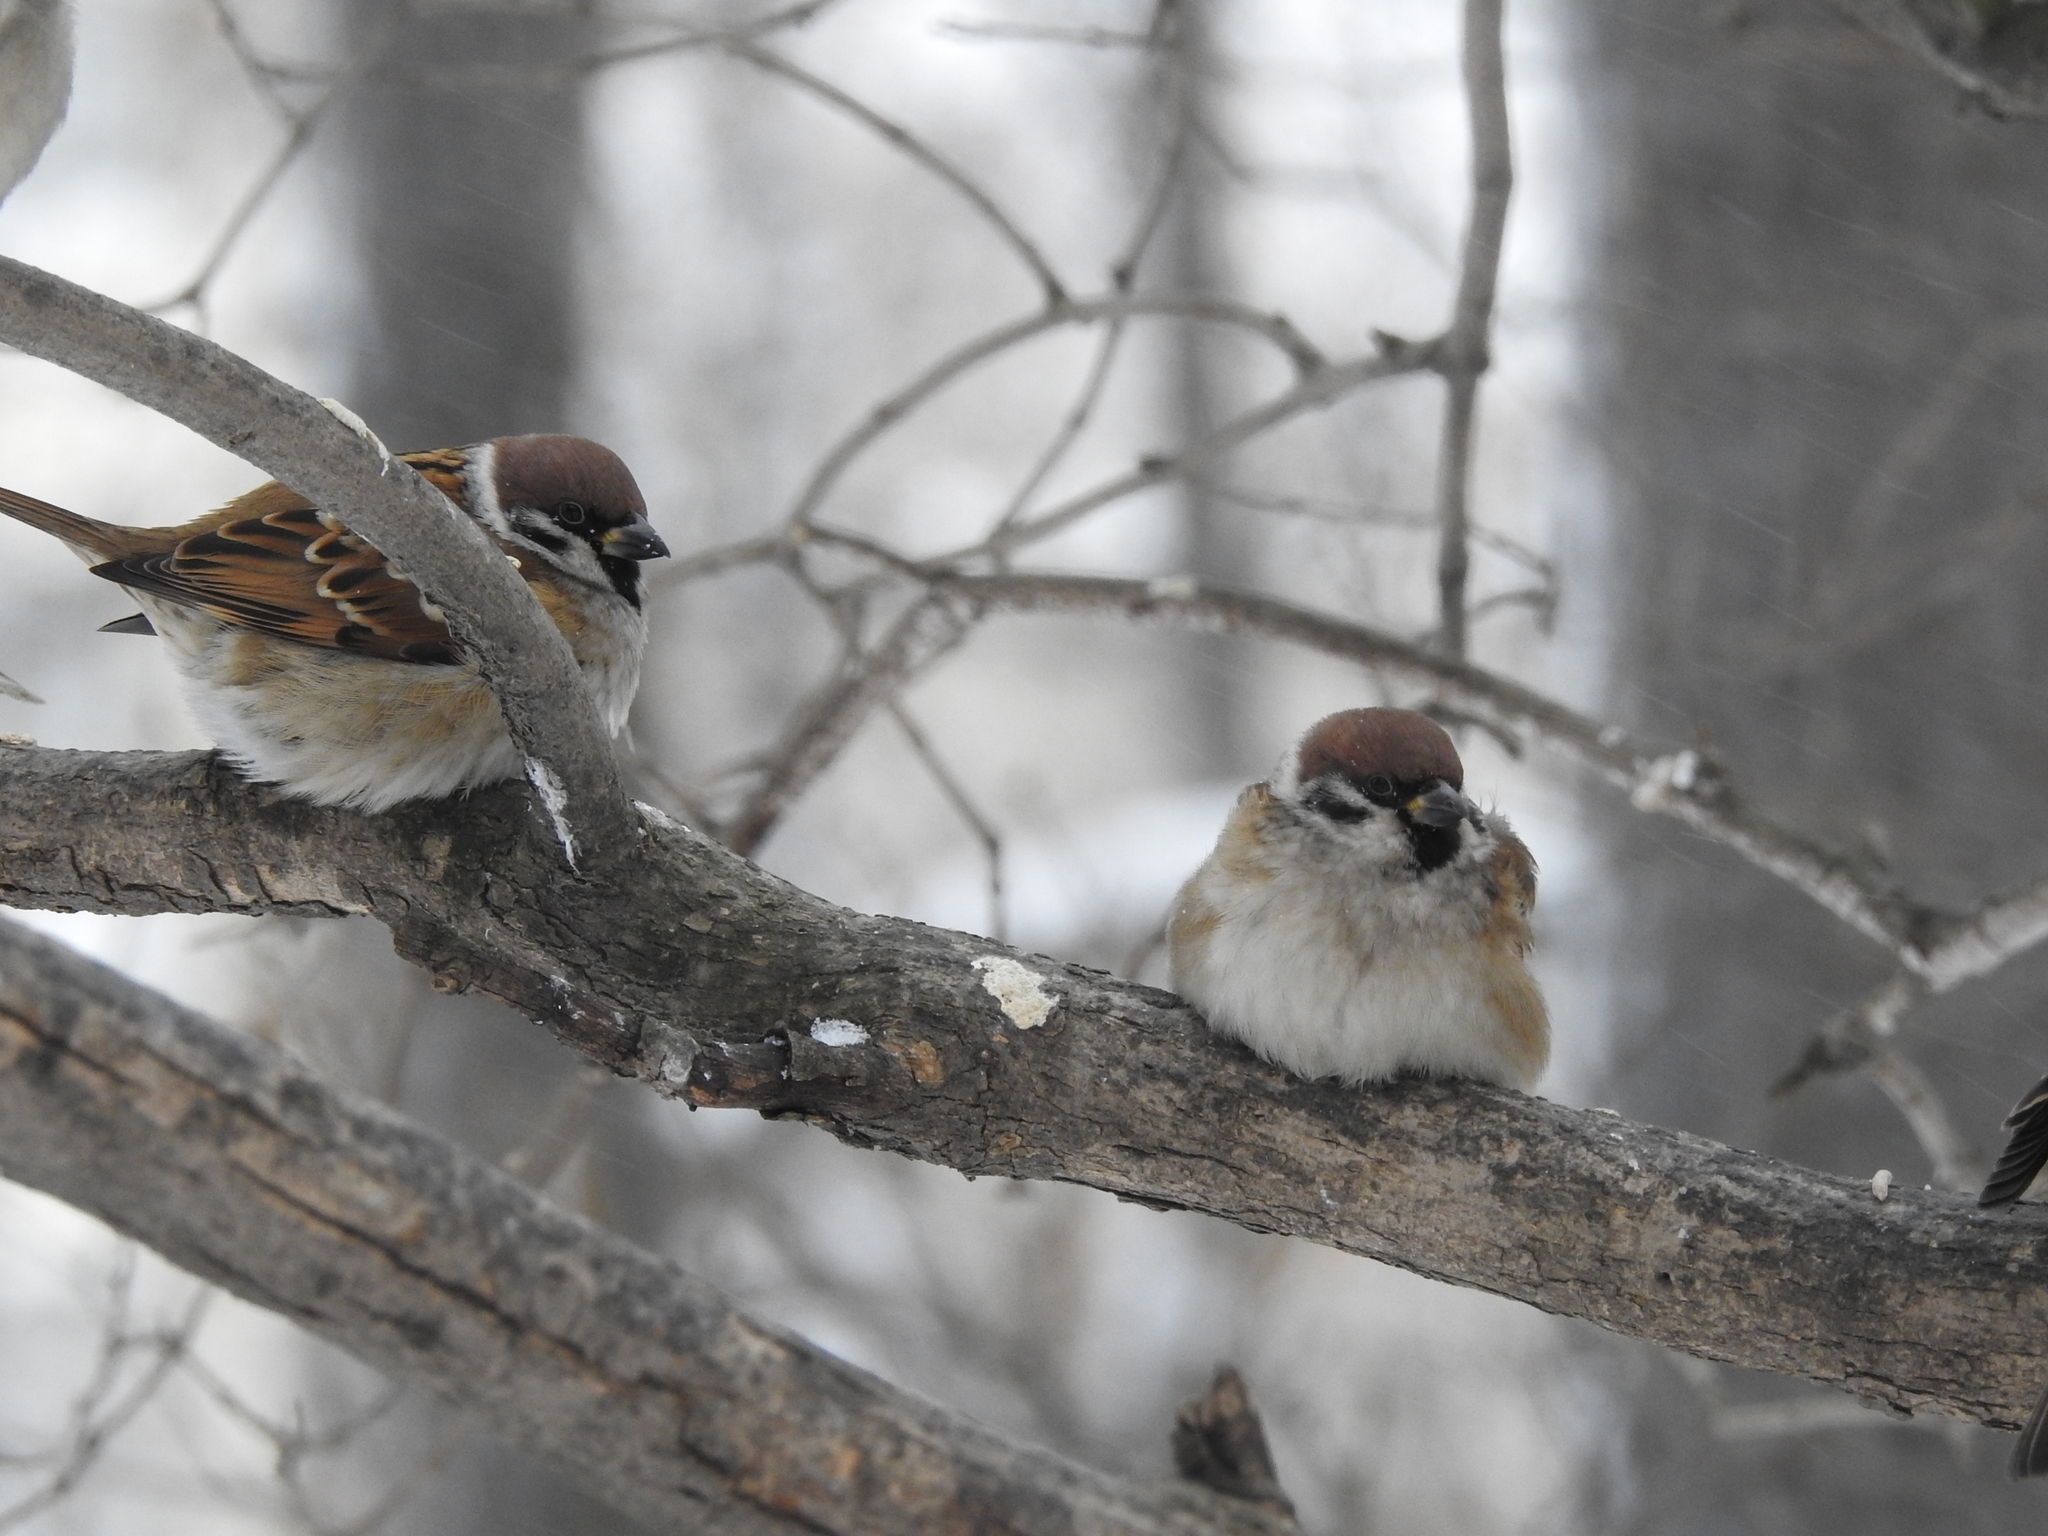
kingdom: Animalia
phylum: Chordata
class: Aves
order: Passeriformes
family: Passeridae
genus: Passer
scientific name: Passer montanus
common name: Eurasian tree sparrow
